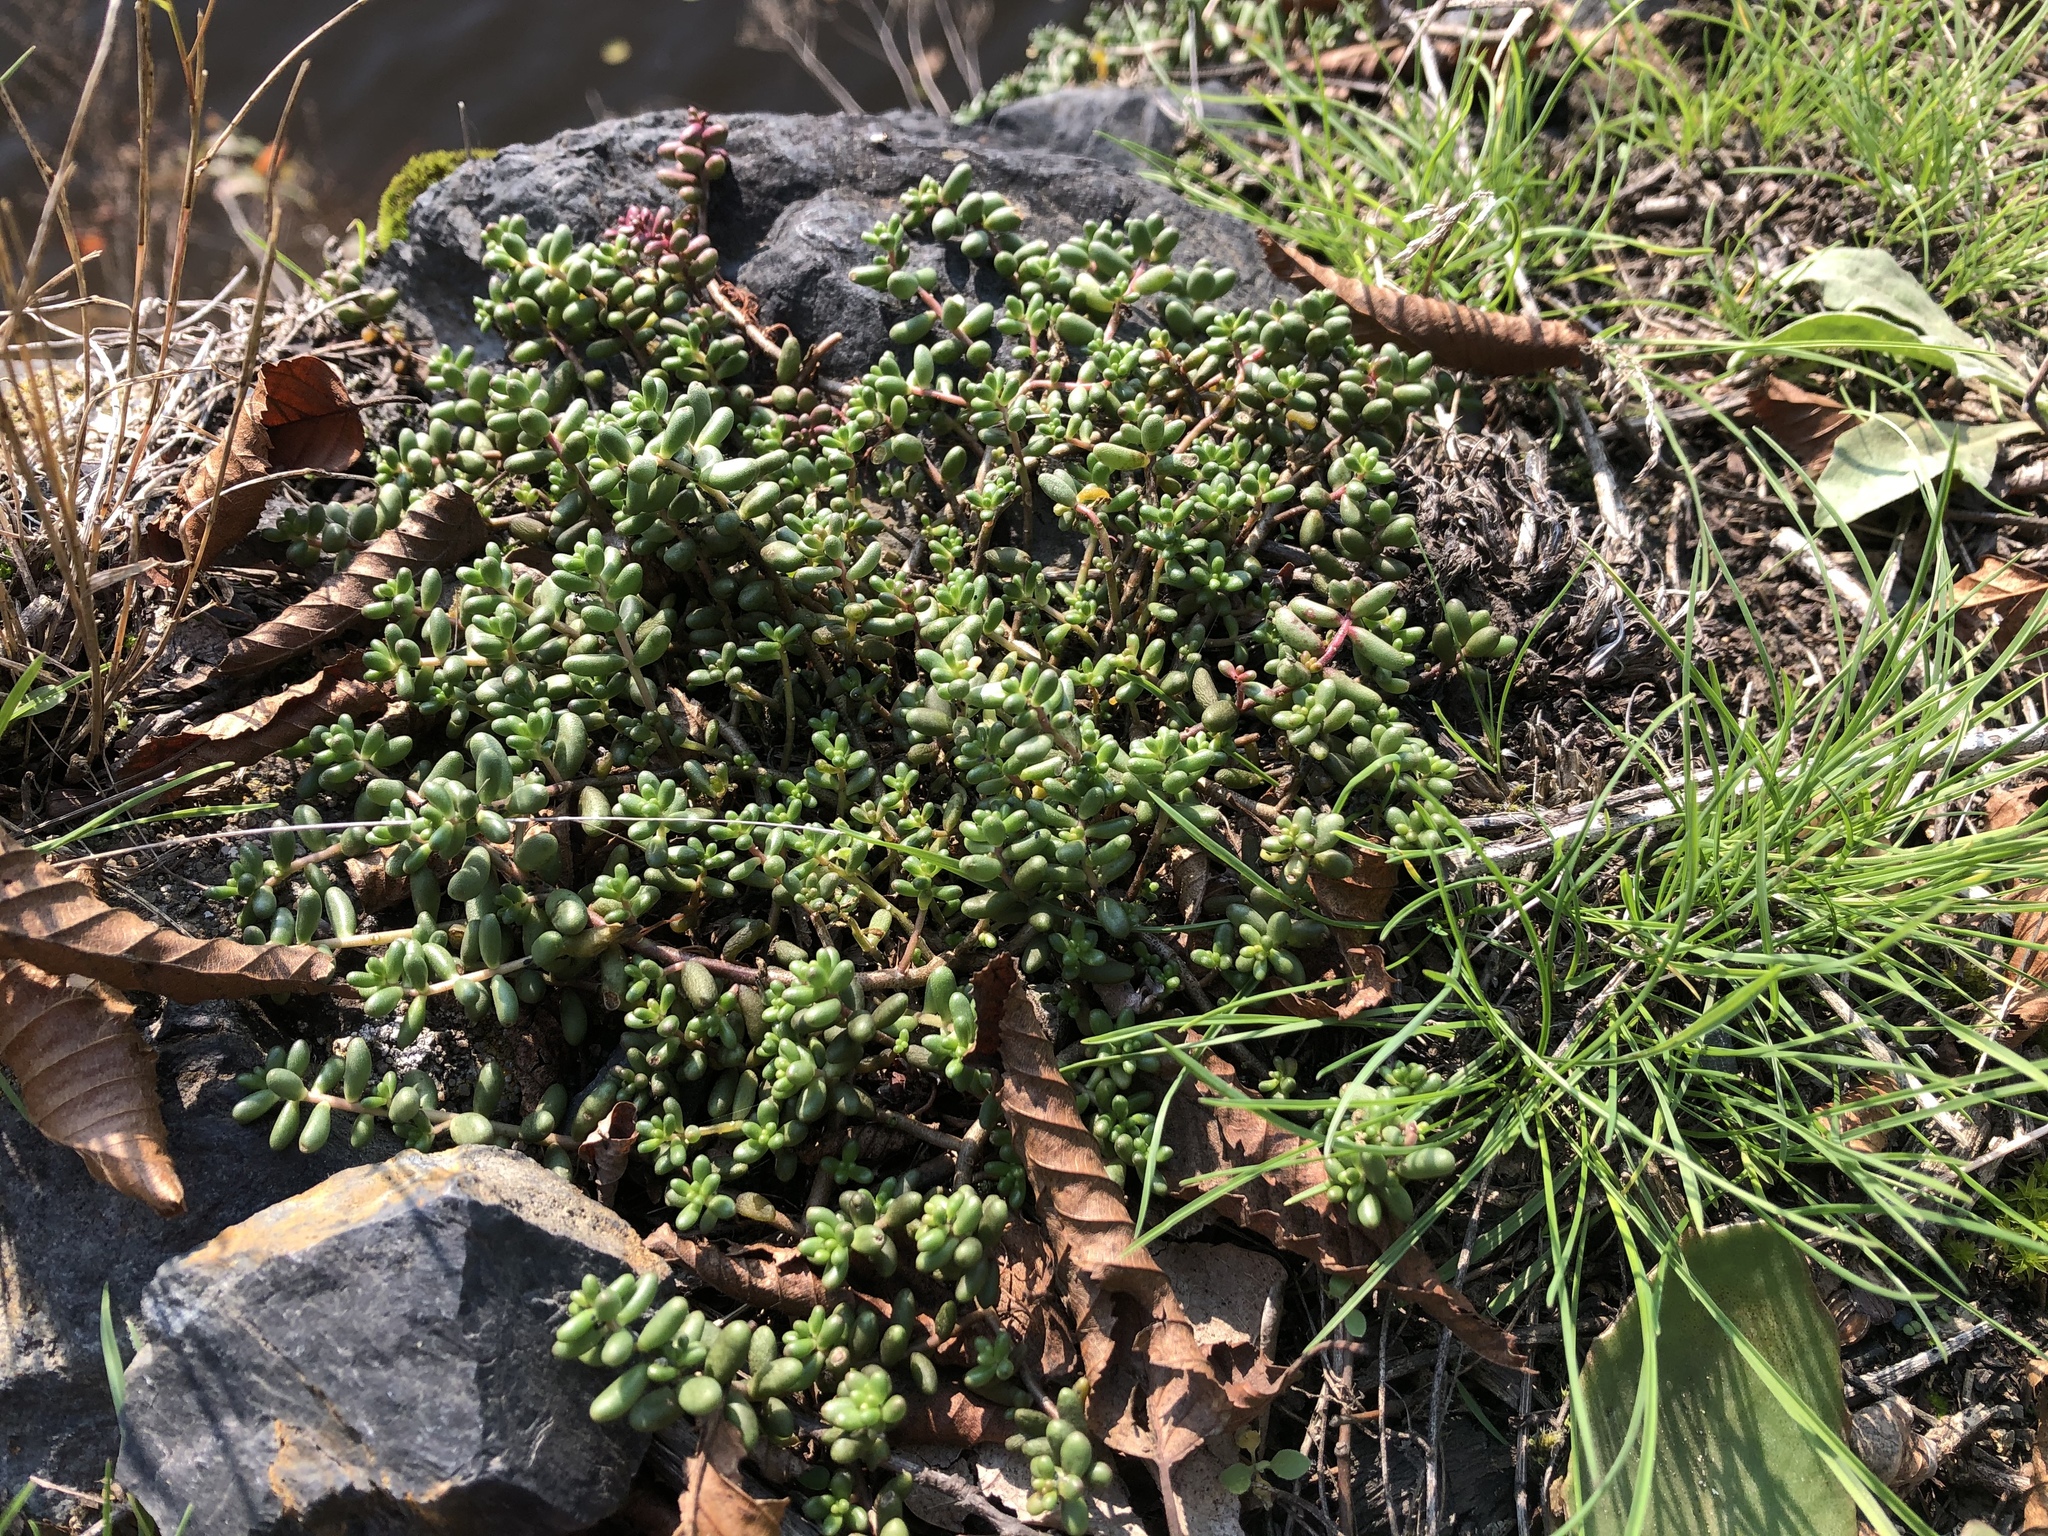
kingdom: Plantae
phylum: Tracheophyta
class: Magnoliopsida
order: Saxifragales
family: Crassulaceae
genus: Sedum
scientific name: Sedum album
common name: White stonecrop
